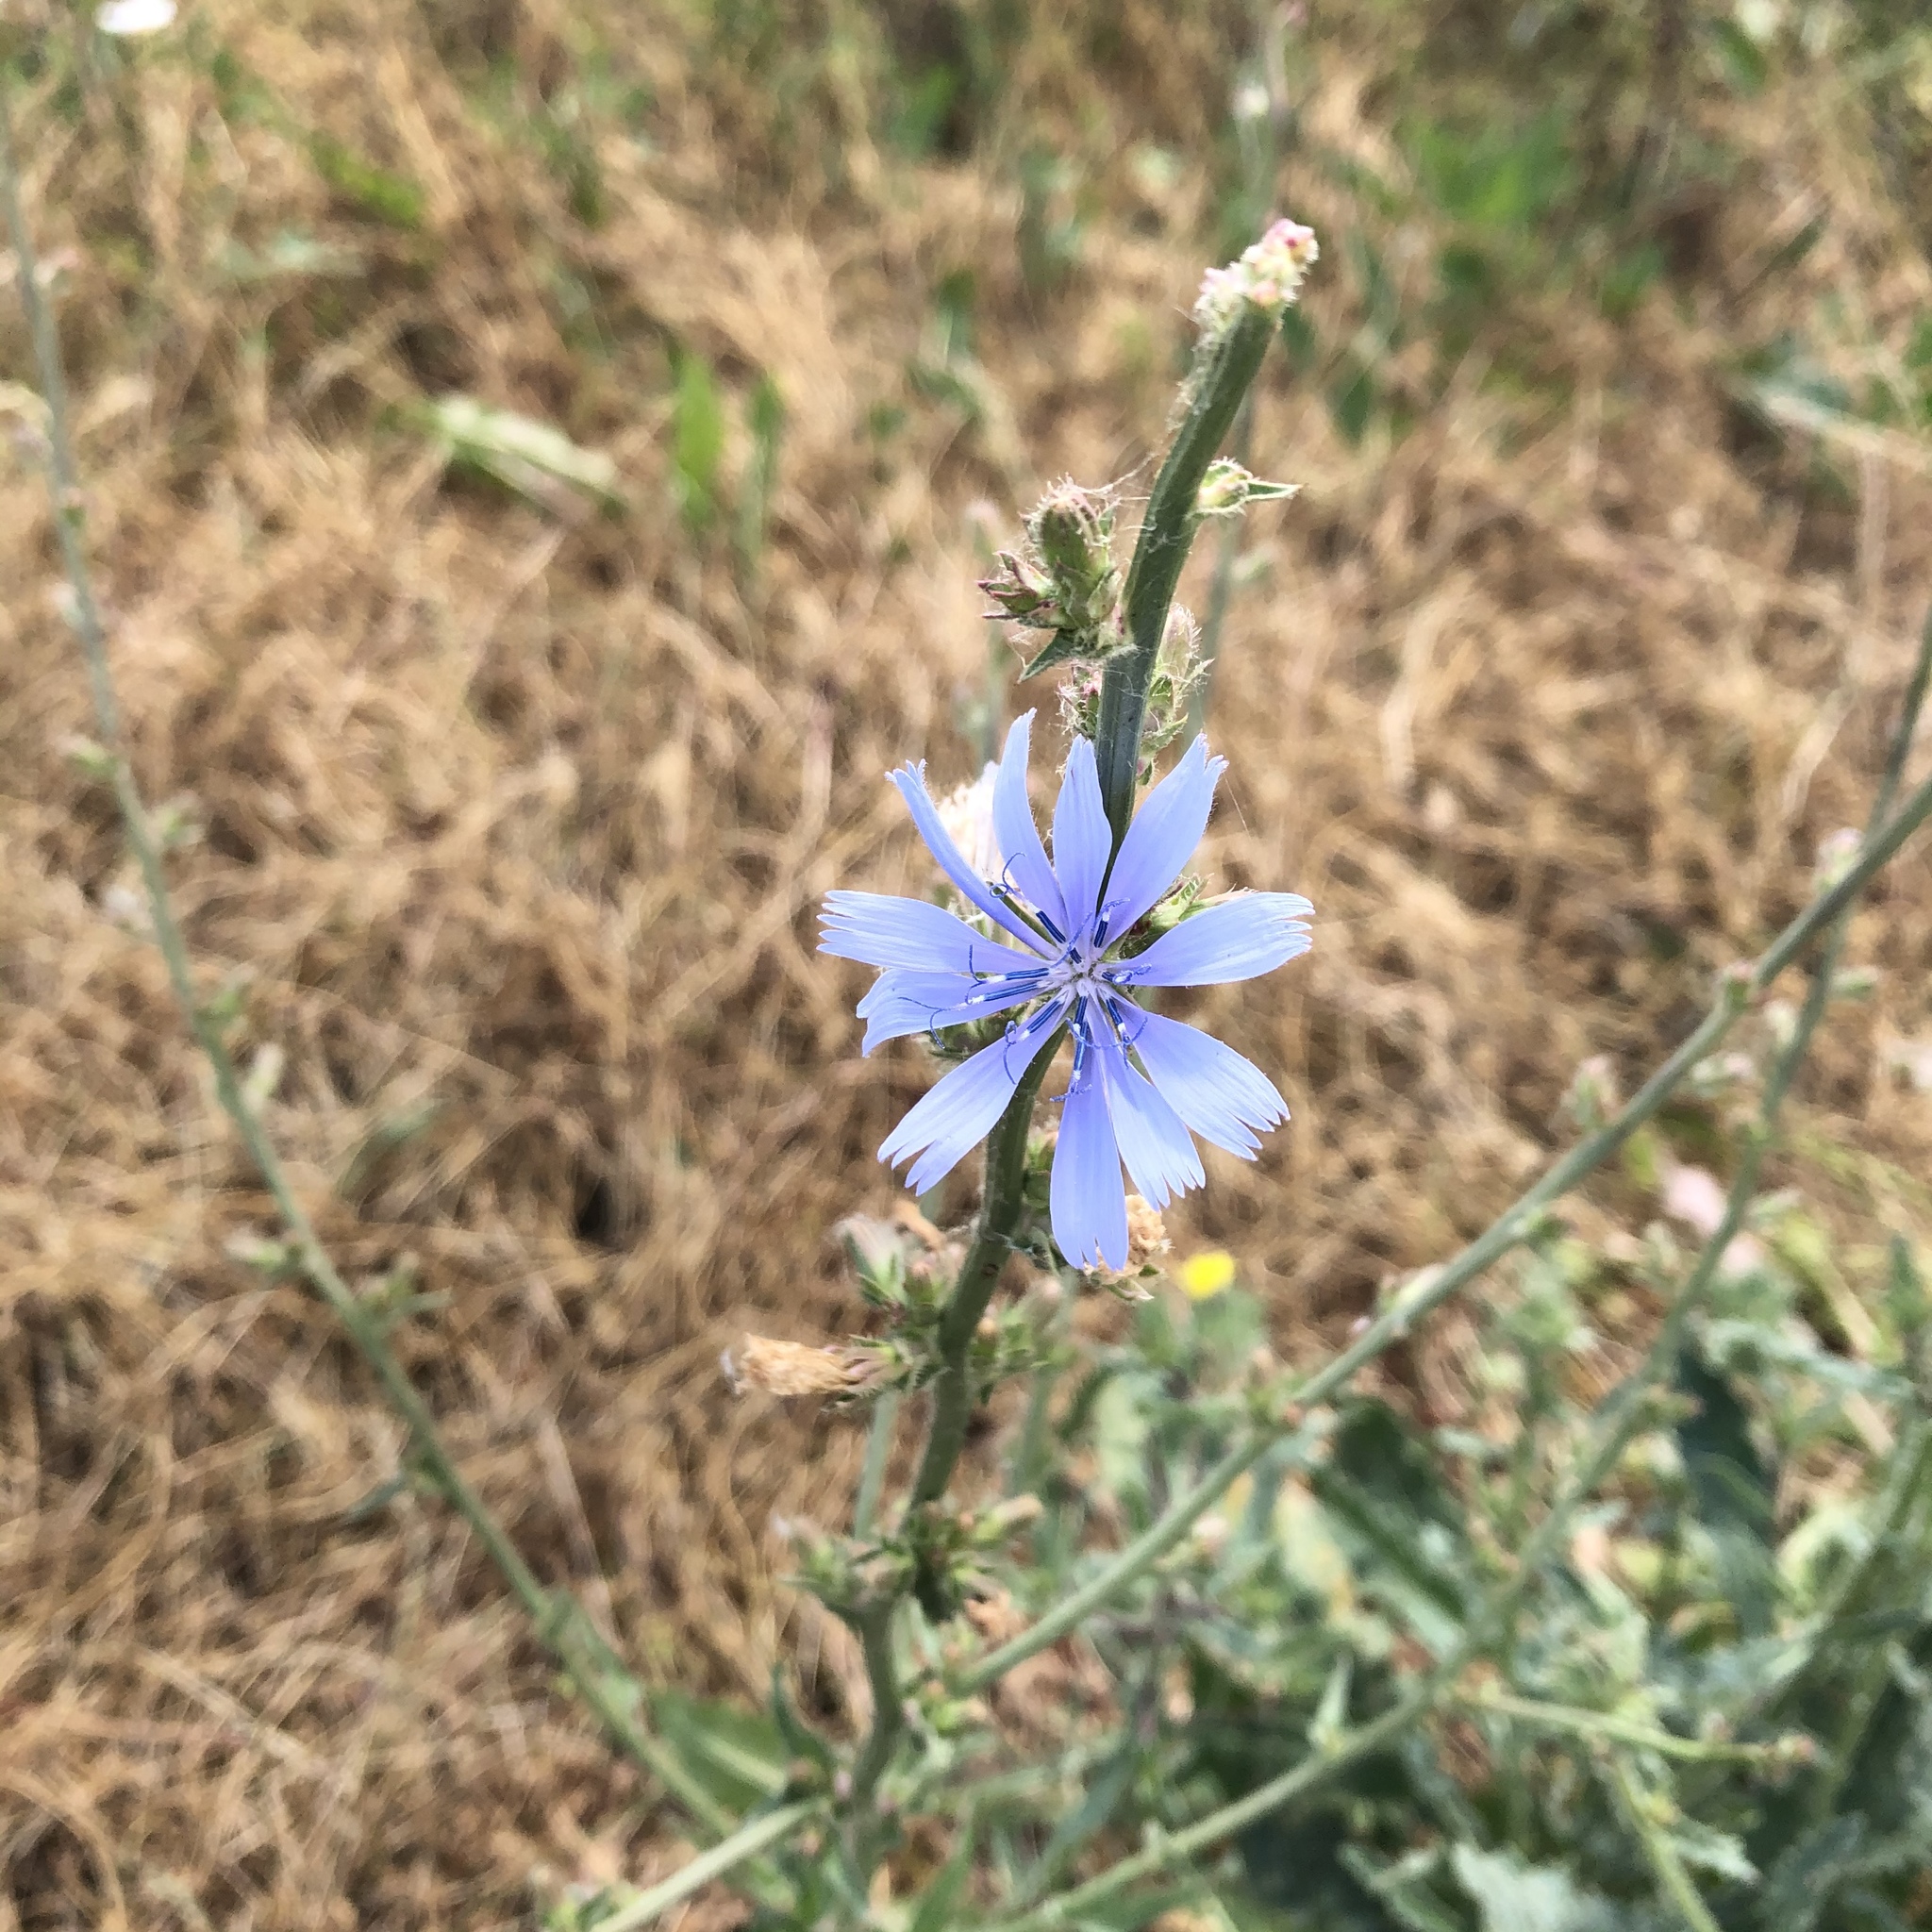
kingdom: Plantae
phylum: Tracheophyta
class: Magnoliopsida
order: Asterales
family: Asteraceae
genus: Cichorium
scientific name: Cichorium intybus
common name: Chicory
